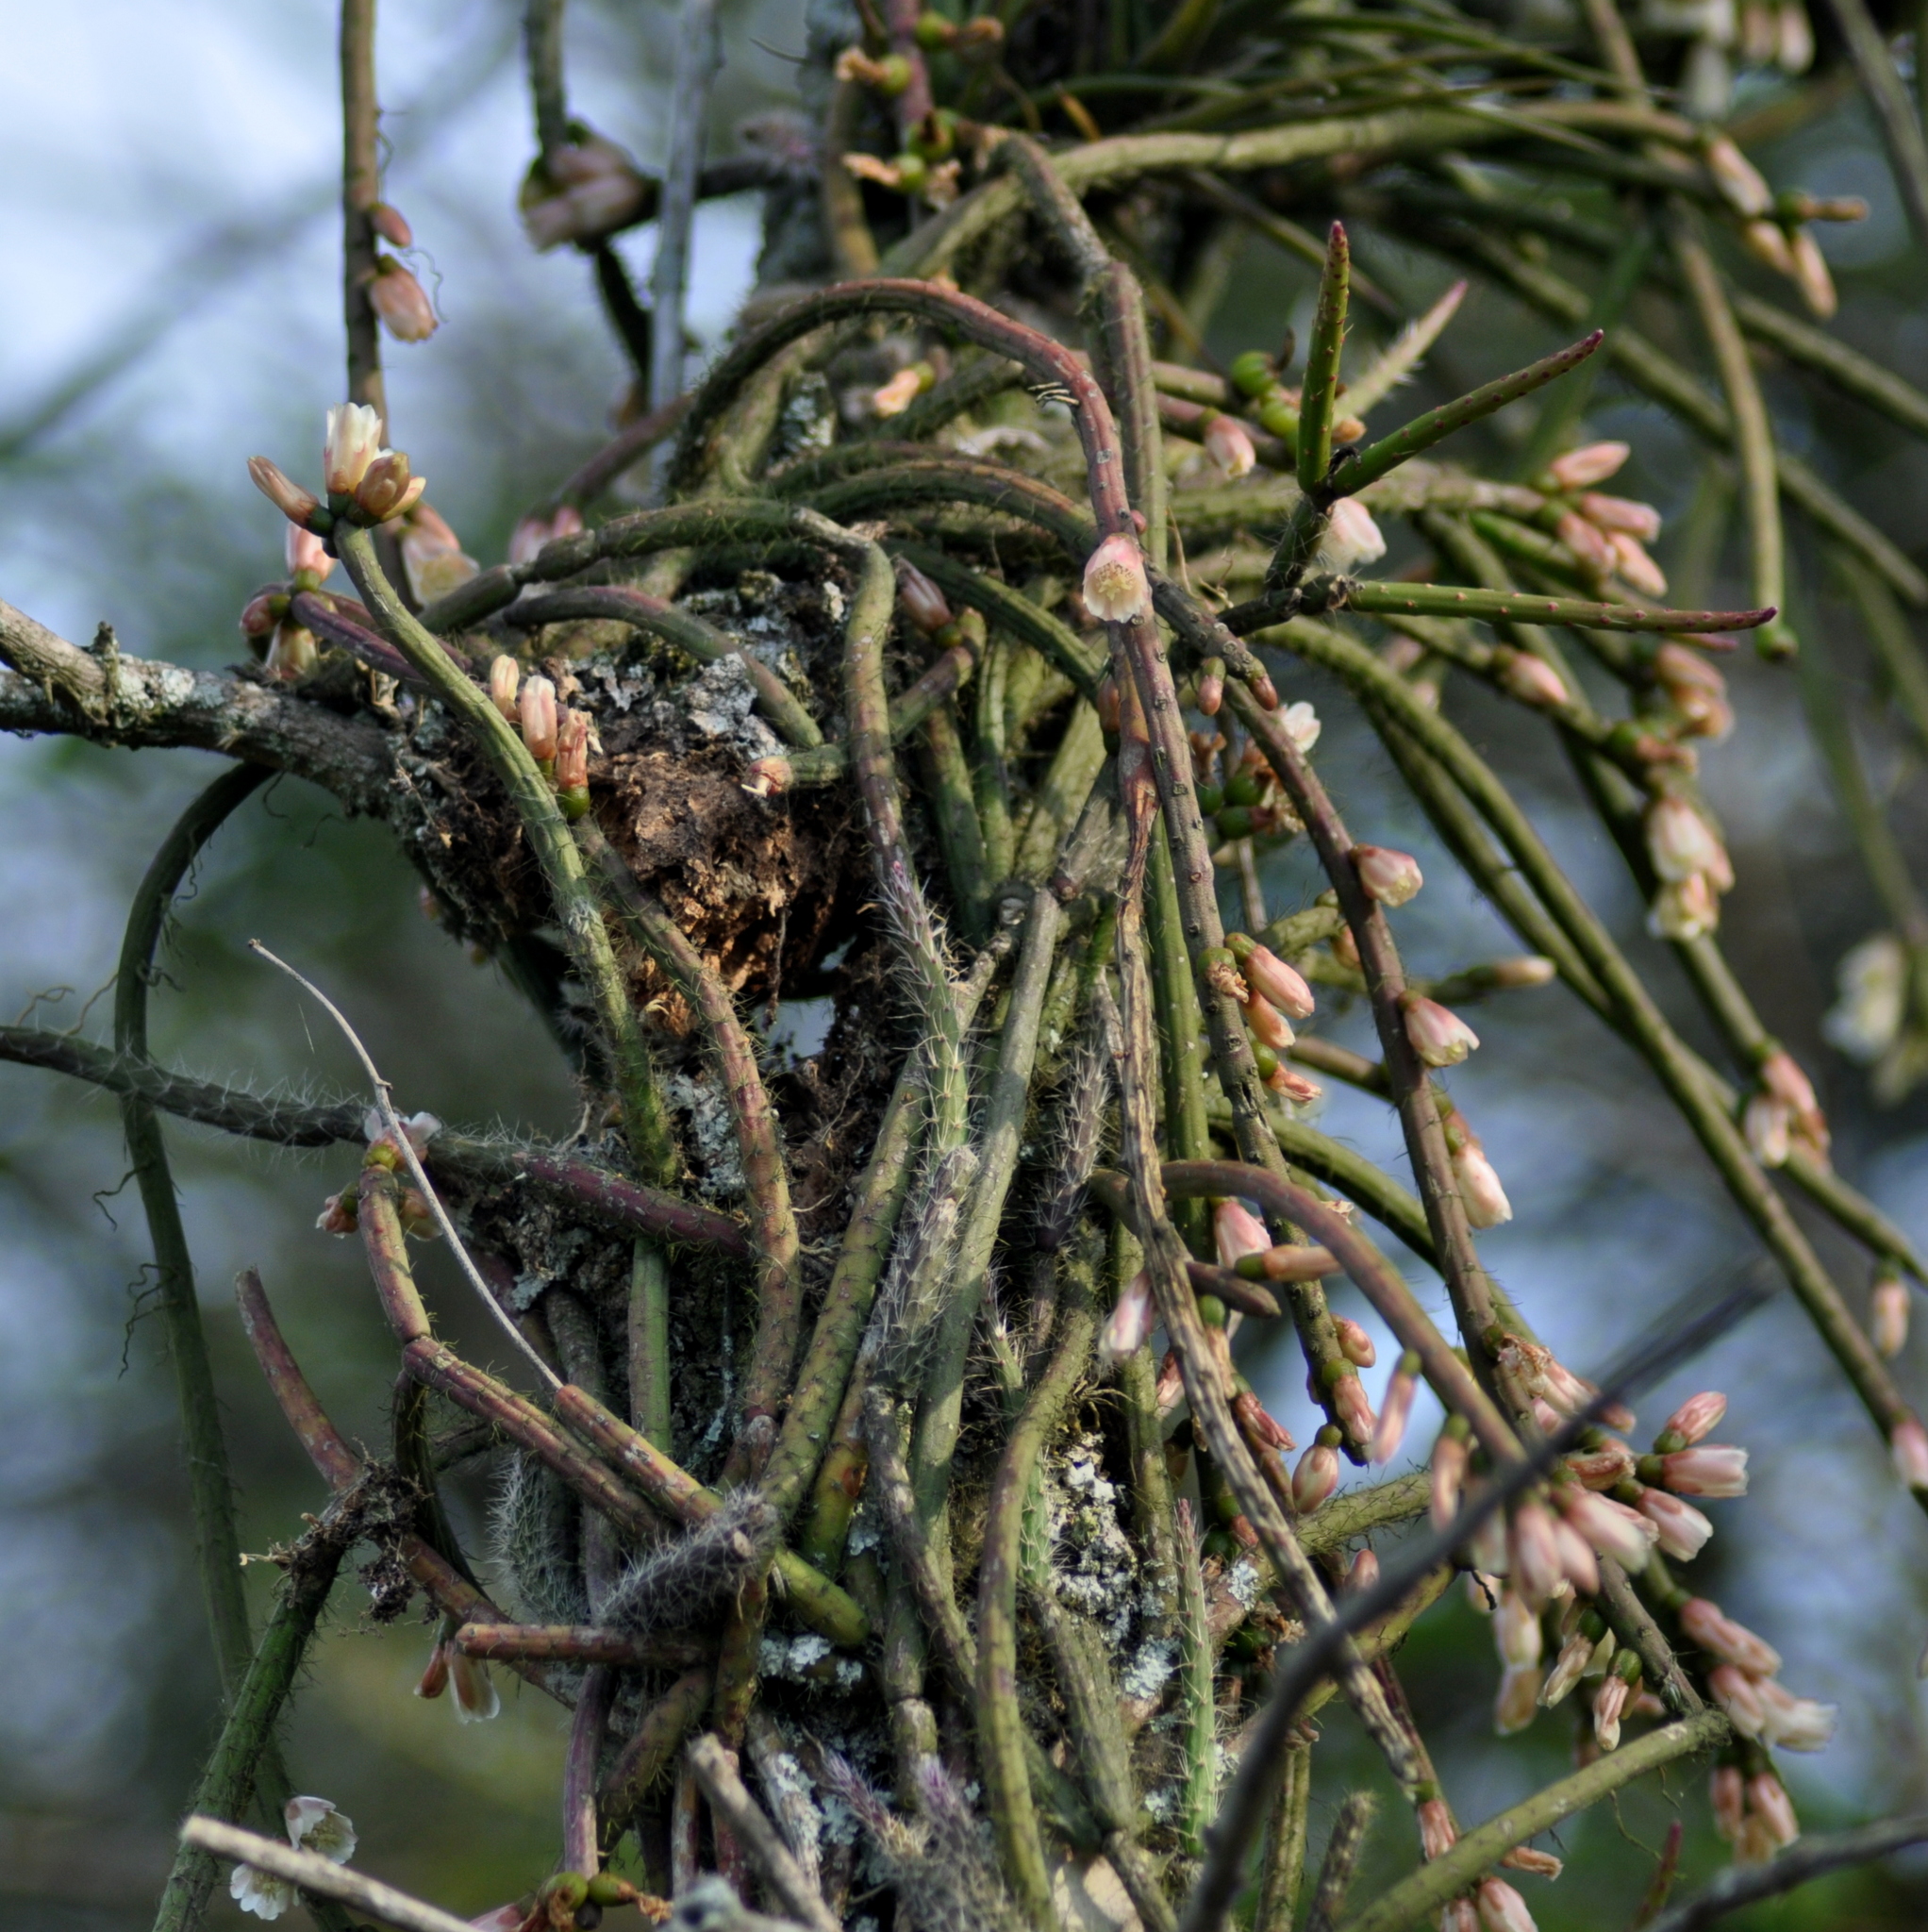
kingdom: Plantae
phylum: Tracheophyta
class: Magnoliopsida
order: Caryophyllales
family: Cactaceae
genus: Lepismium
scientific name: Lepismium lumbricoides
